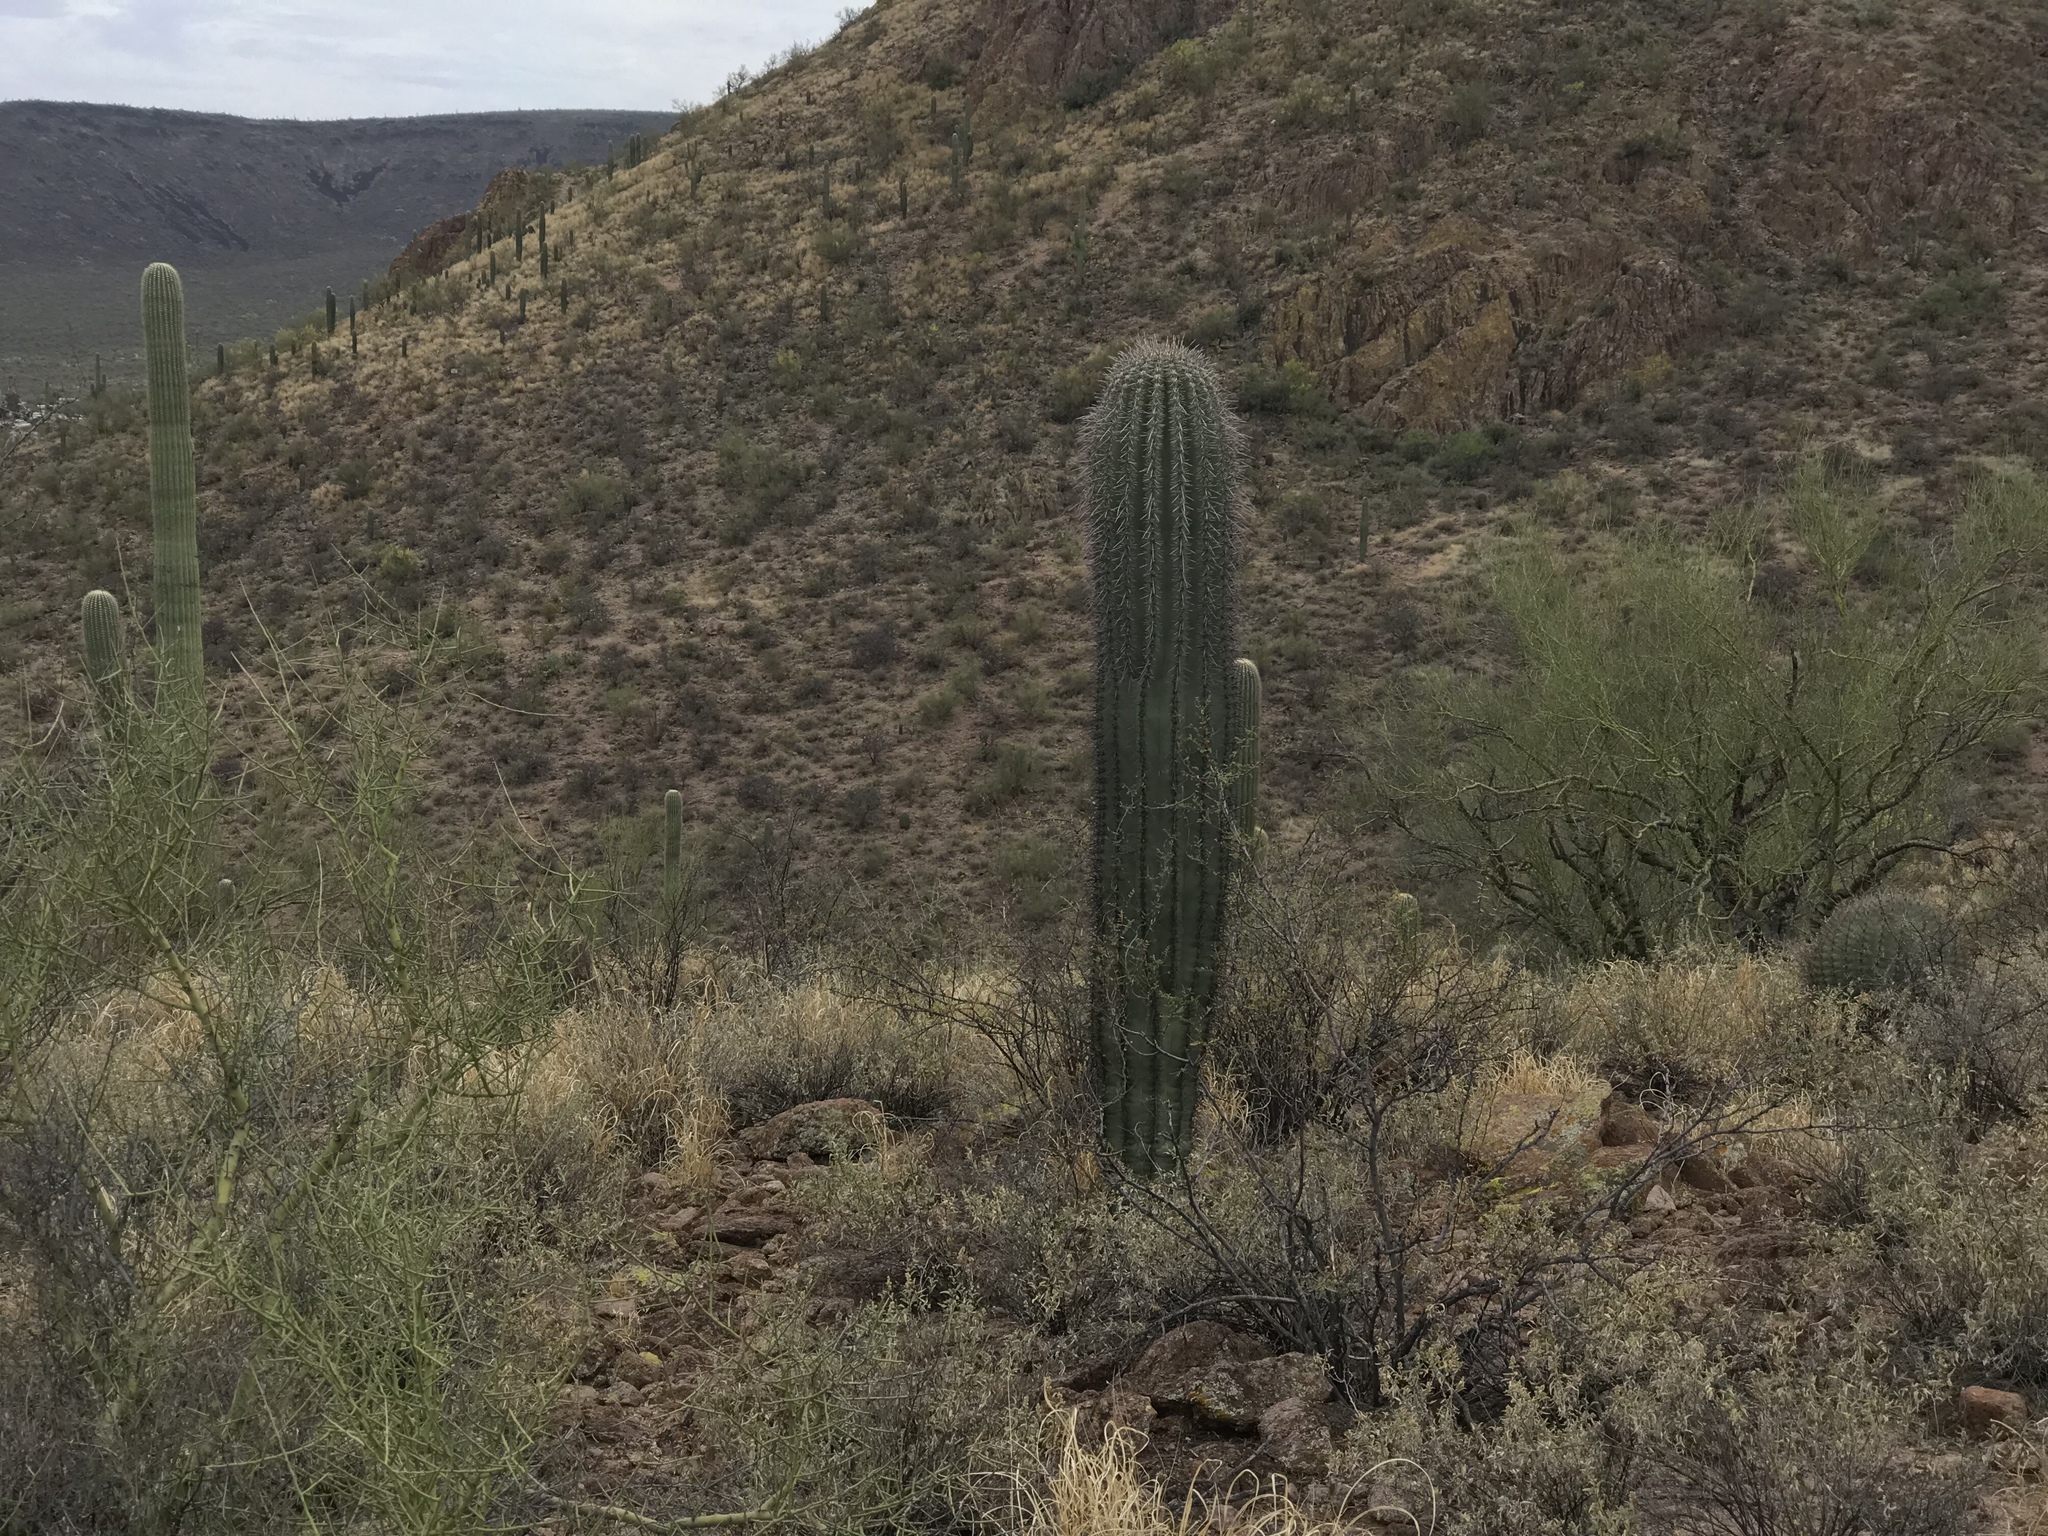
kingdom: Plantae
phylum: Tracheophyta
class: Magnoliopsida
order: Caryophyllales
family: Cactaceae
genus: Carnegiea
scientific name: Carnegiea gigantea
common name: Saguaro
